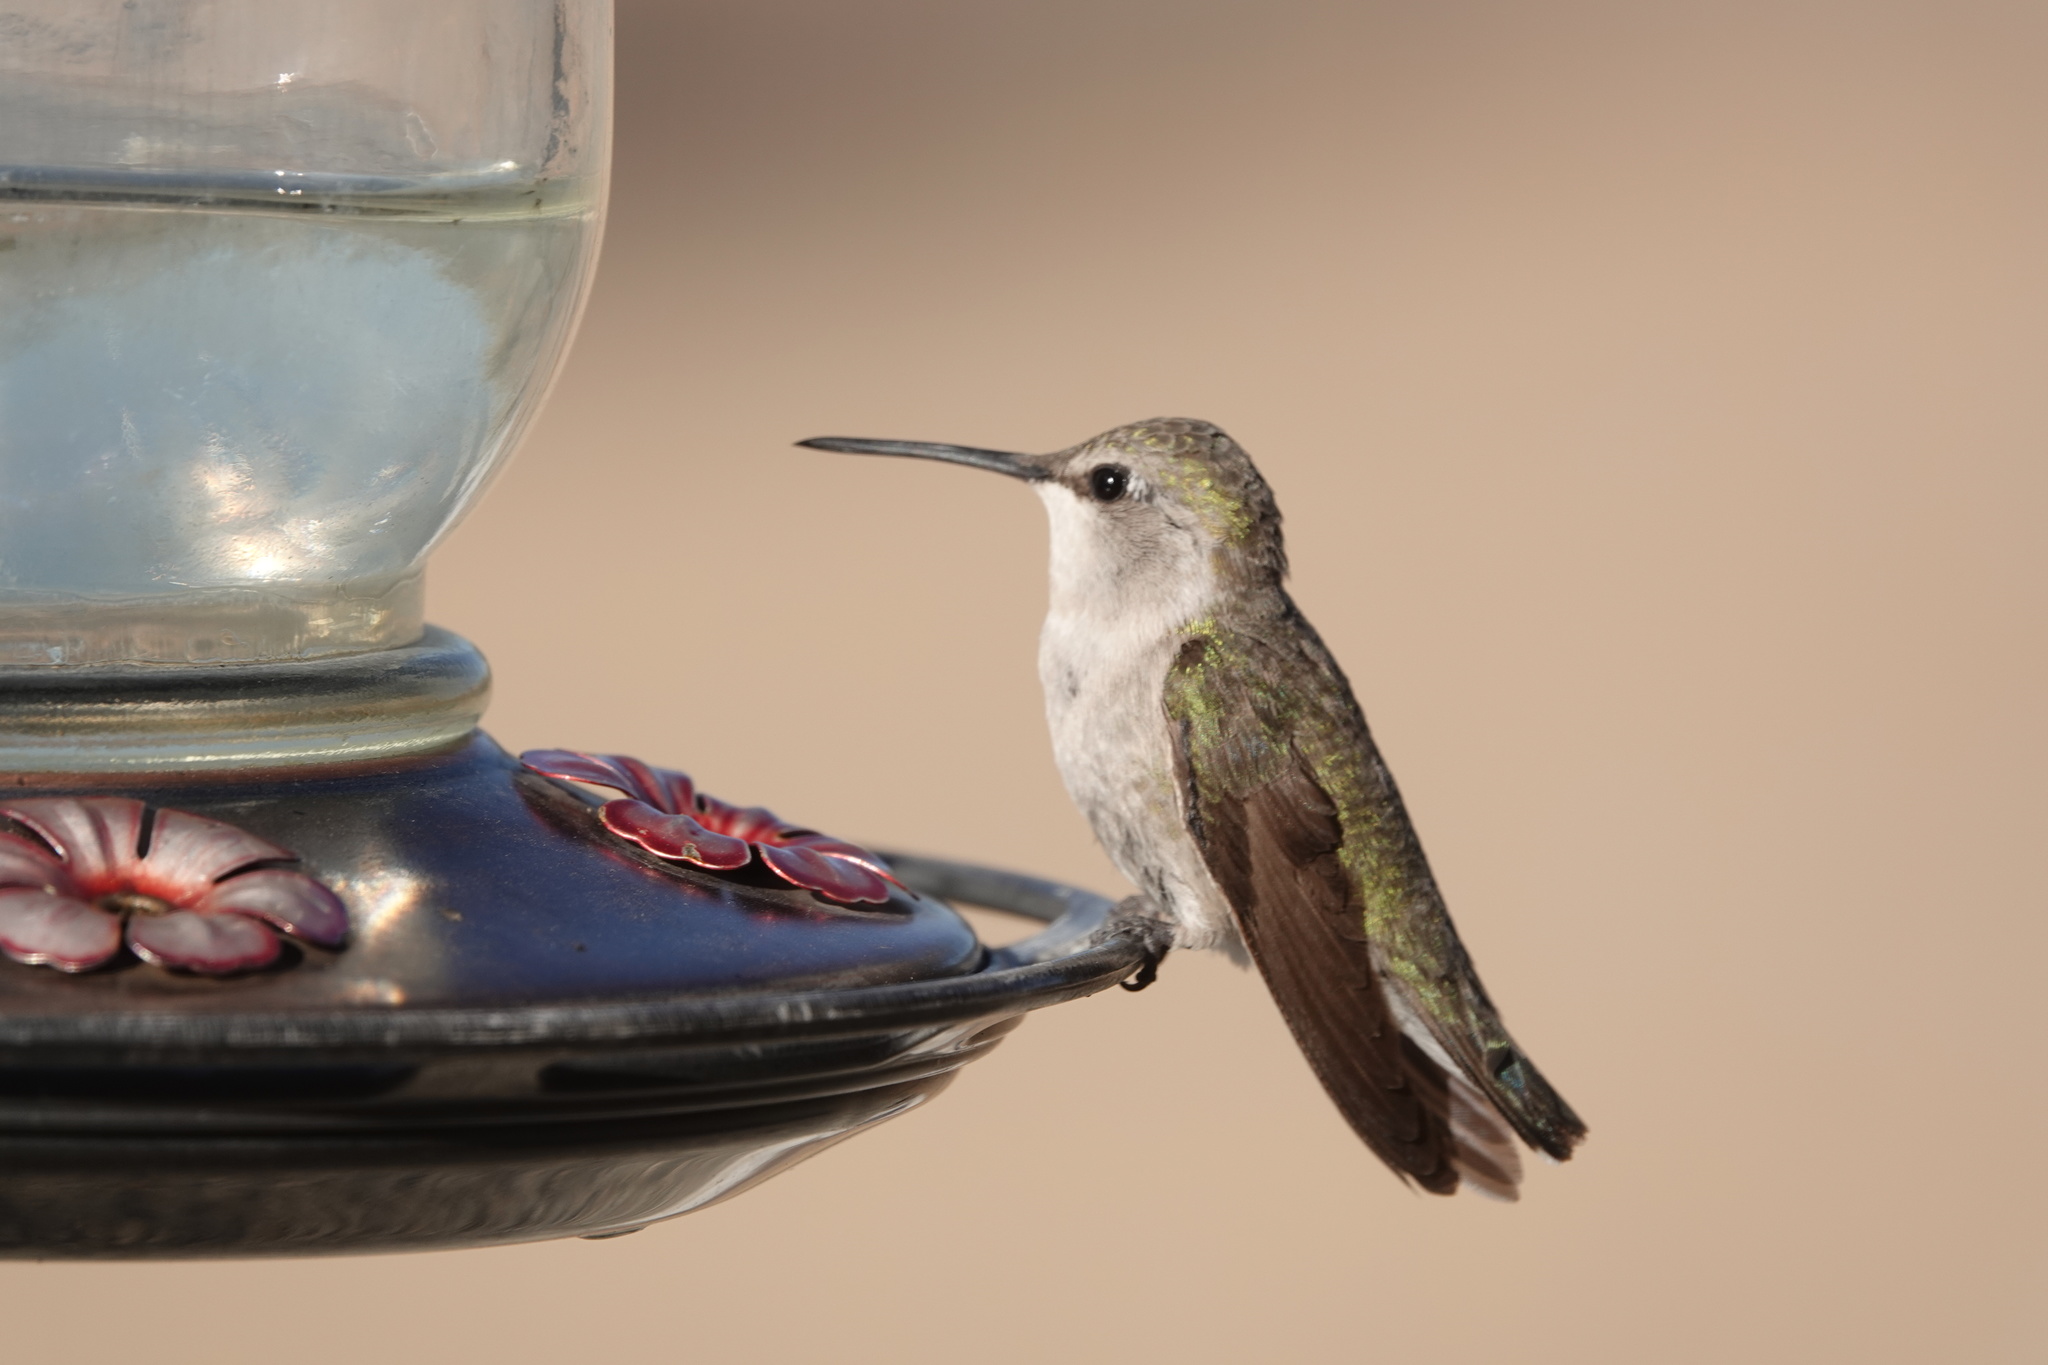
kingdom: Animalia
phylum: Chordata
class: Aves
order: Apodiformes
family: Trochilidae
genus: Calypte
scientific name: Calypte costae
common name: Costa's hummingbird
